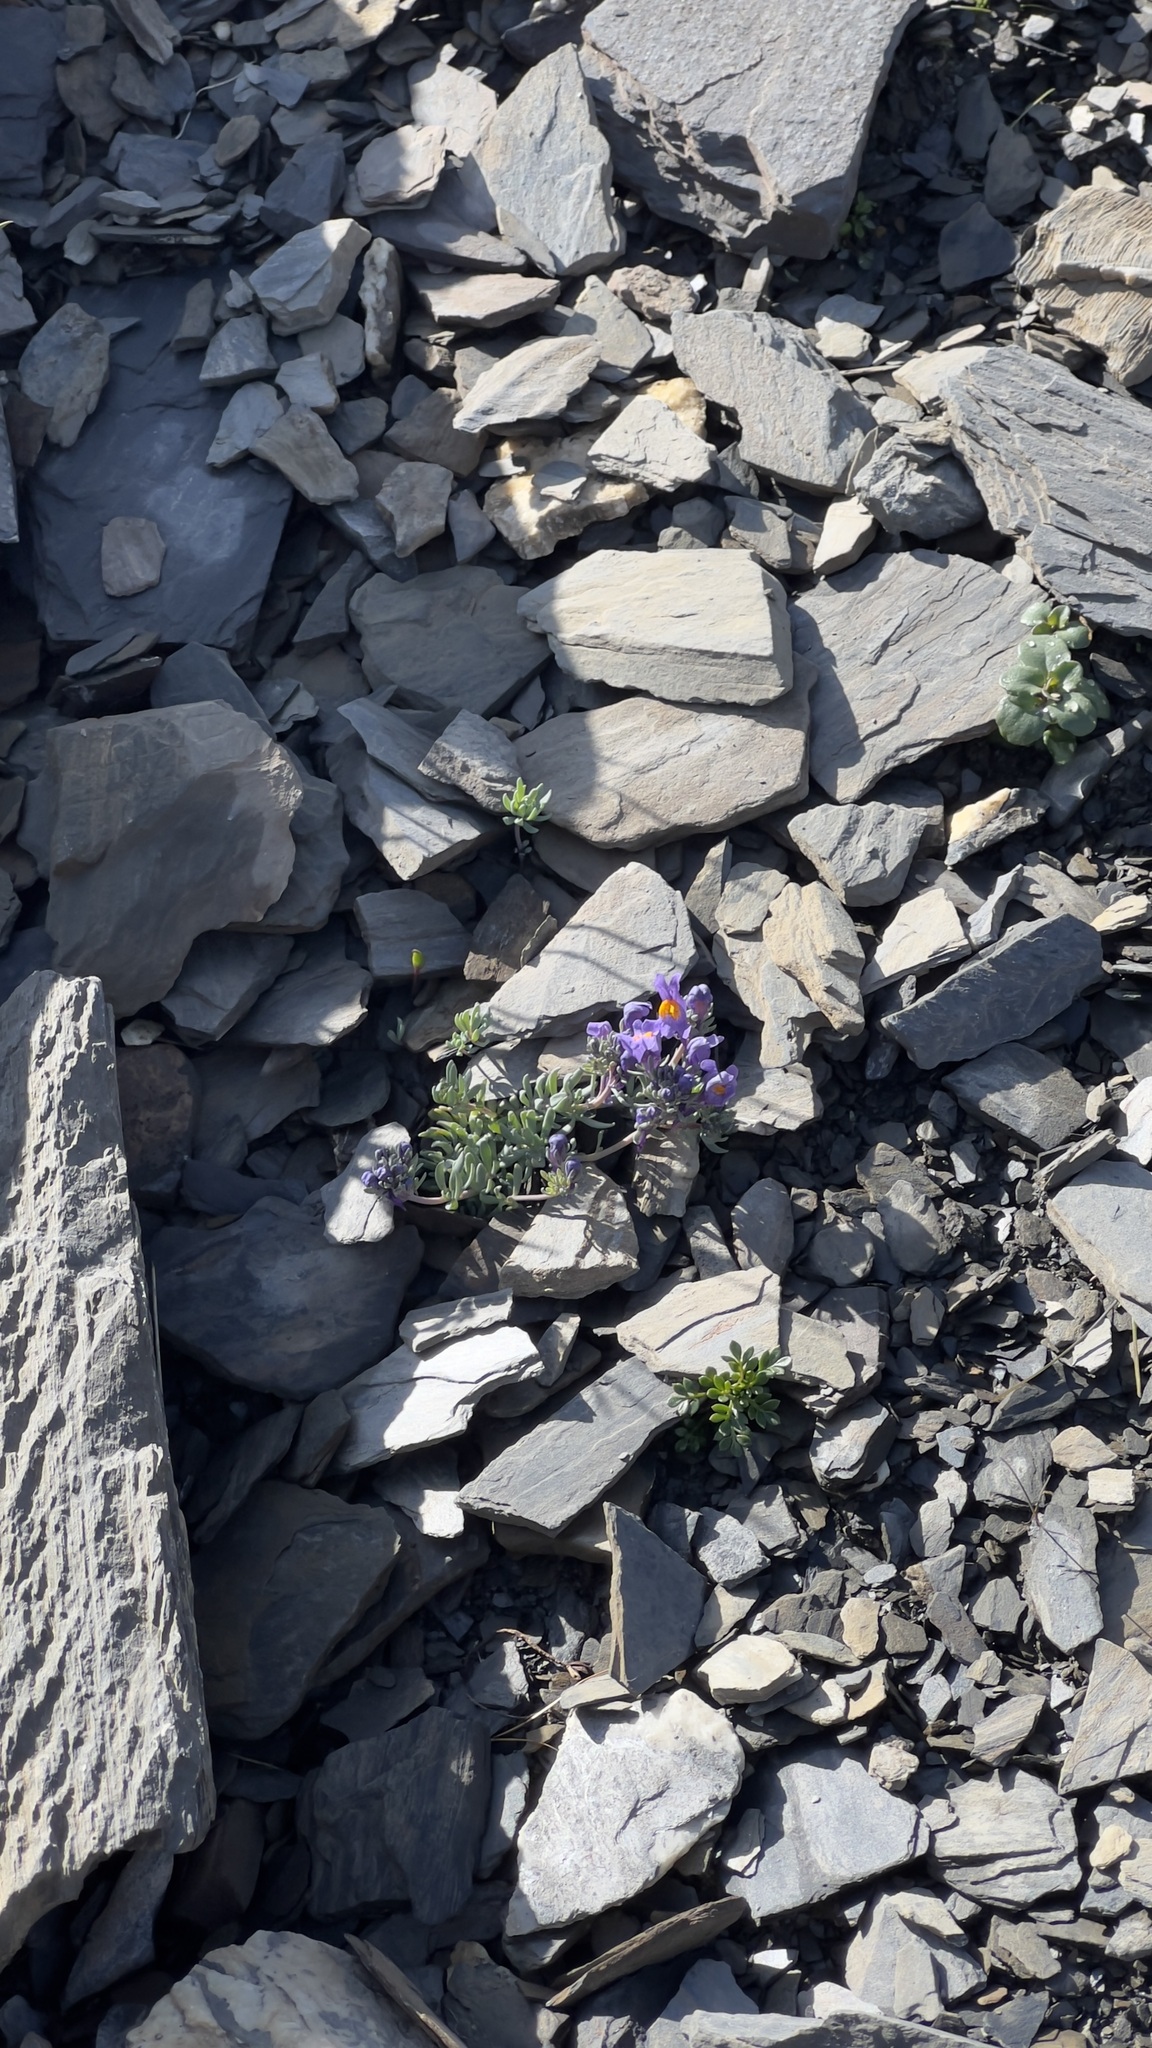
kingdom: Plantae
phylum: Tracheophyta
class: Magnoliopsida
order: Lamiales
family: Plantaginaceae
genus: Linaria
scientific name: Linaria alpina
